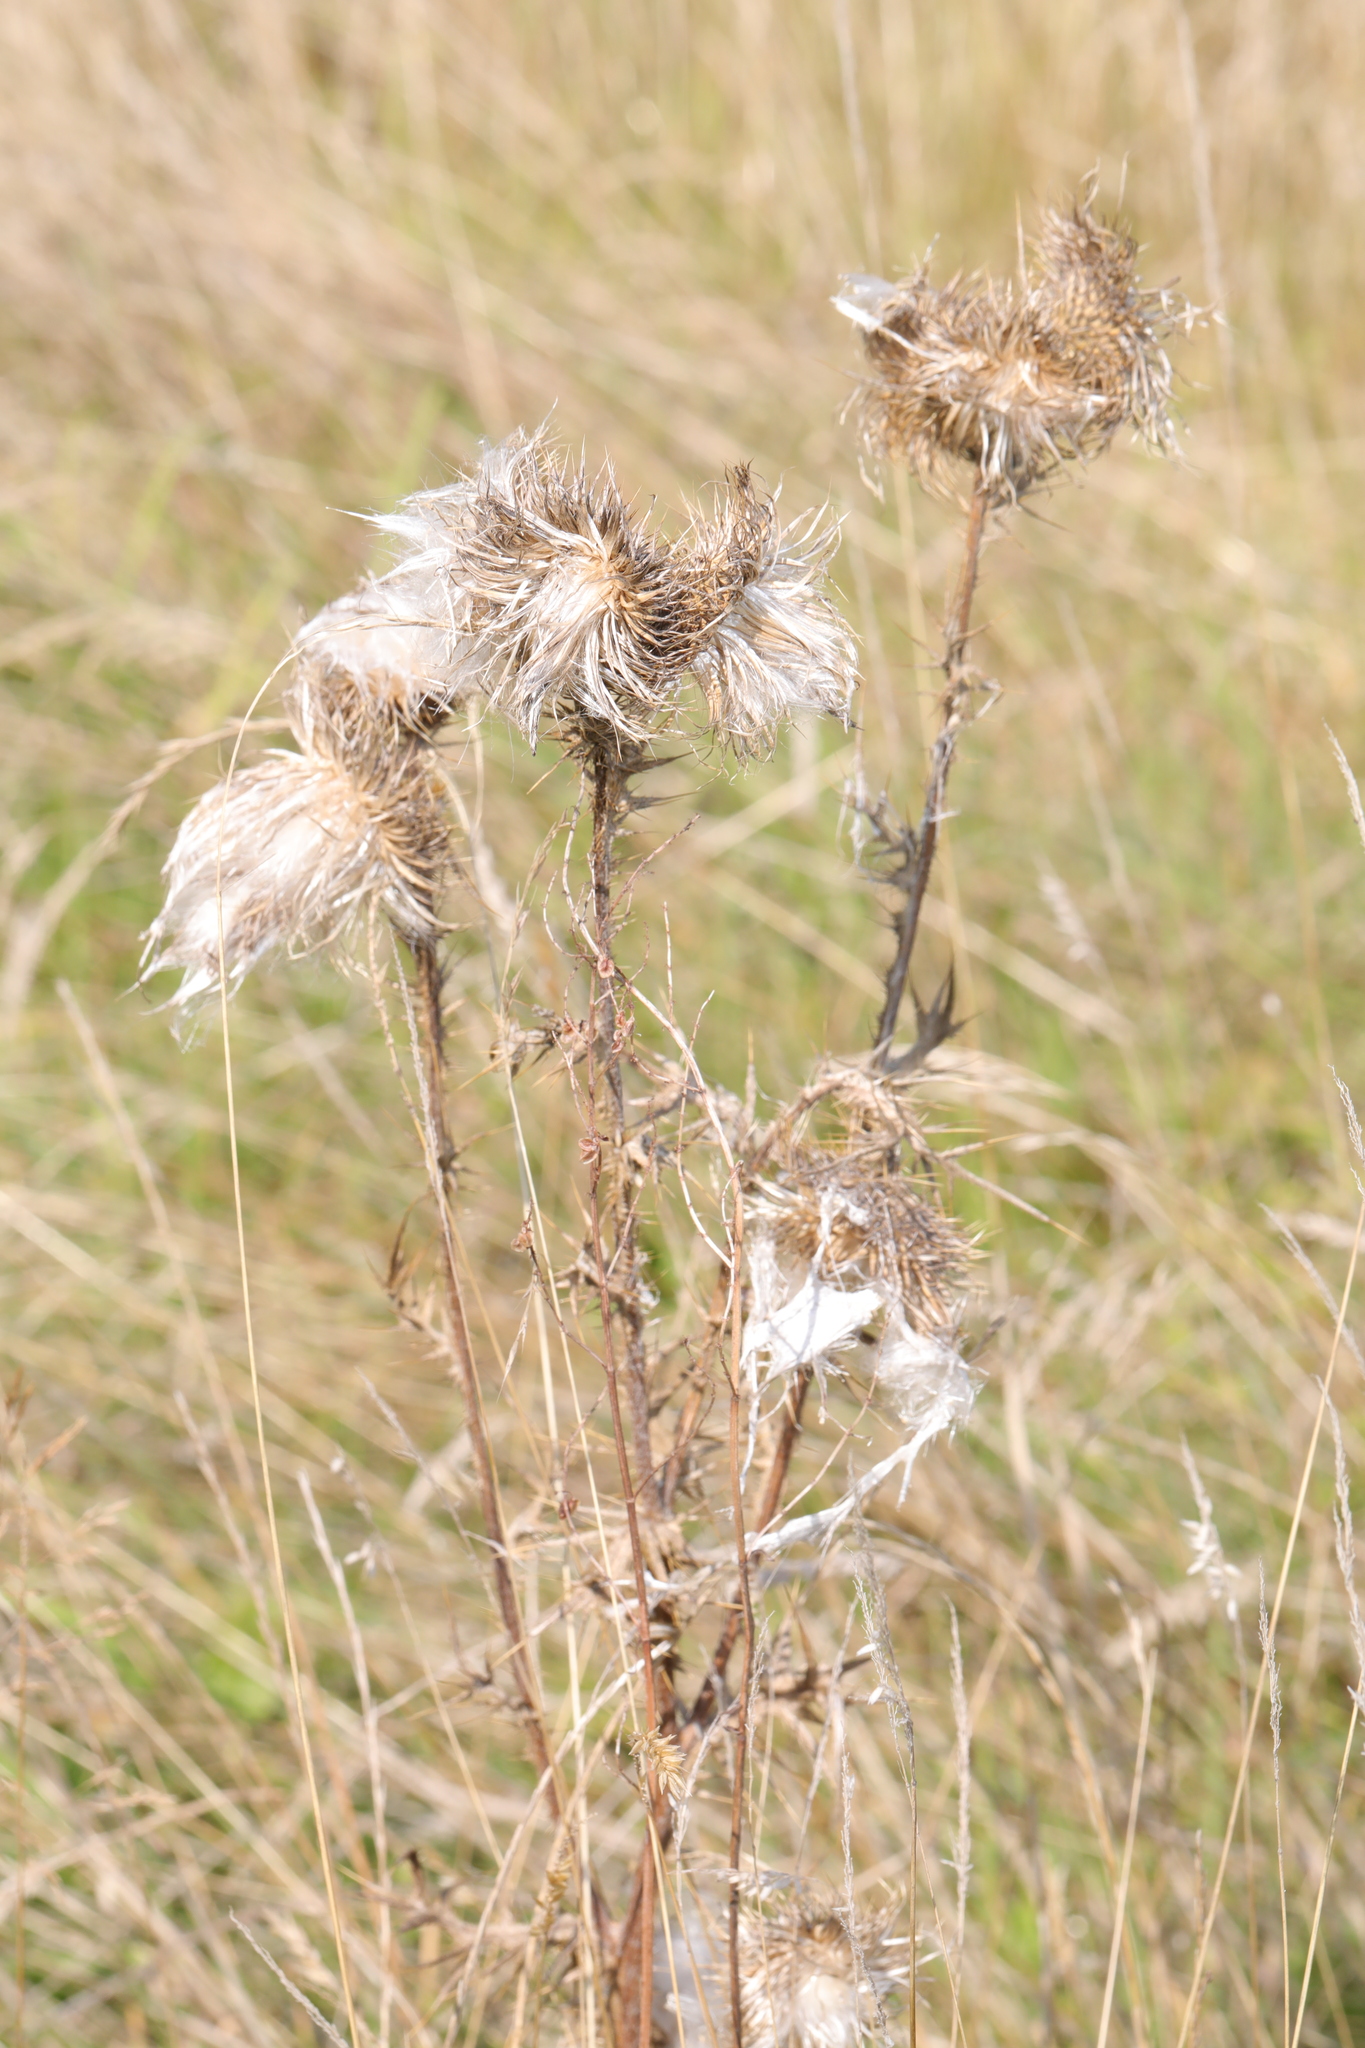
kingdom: Plantae
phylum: Tracheophyta
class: Magnoliopsida
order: Asterales
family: Asteraceae
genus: Cirsium
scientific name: Cirsium vulgare
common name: Bull thistle
